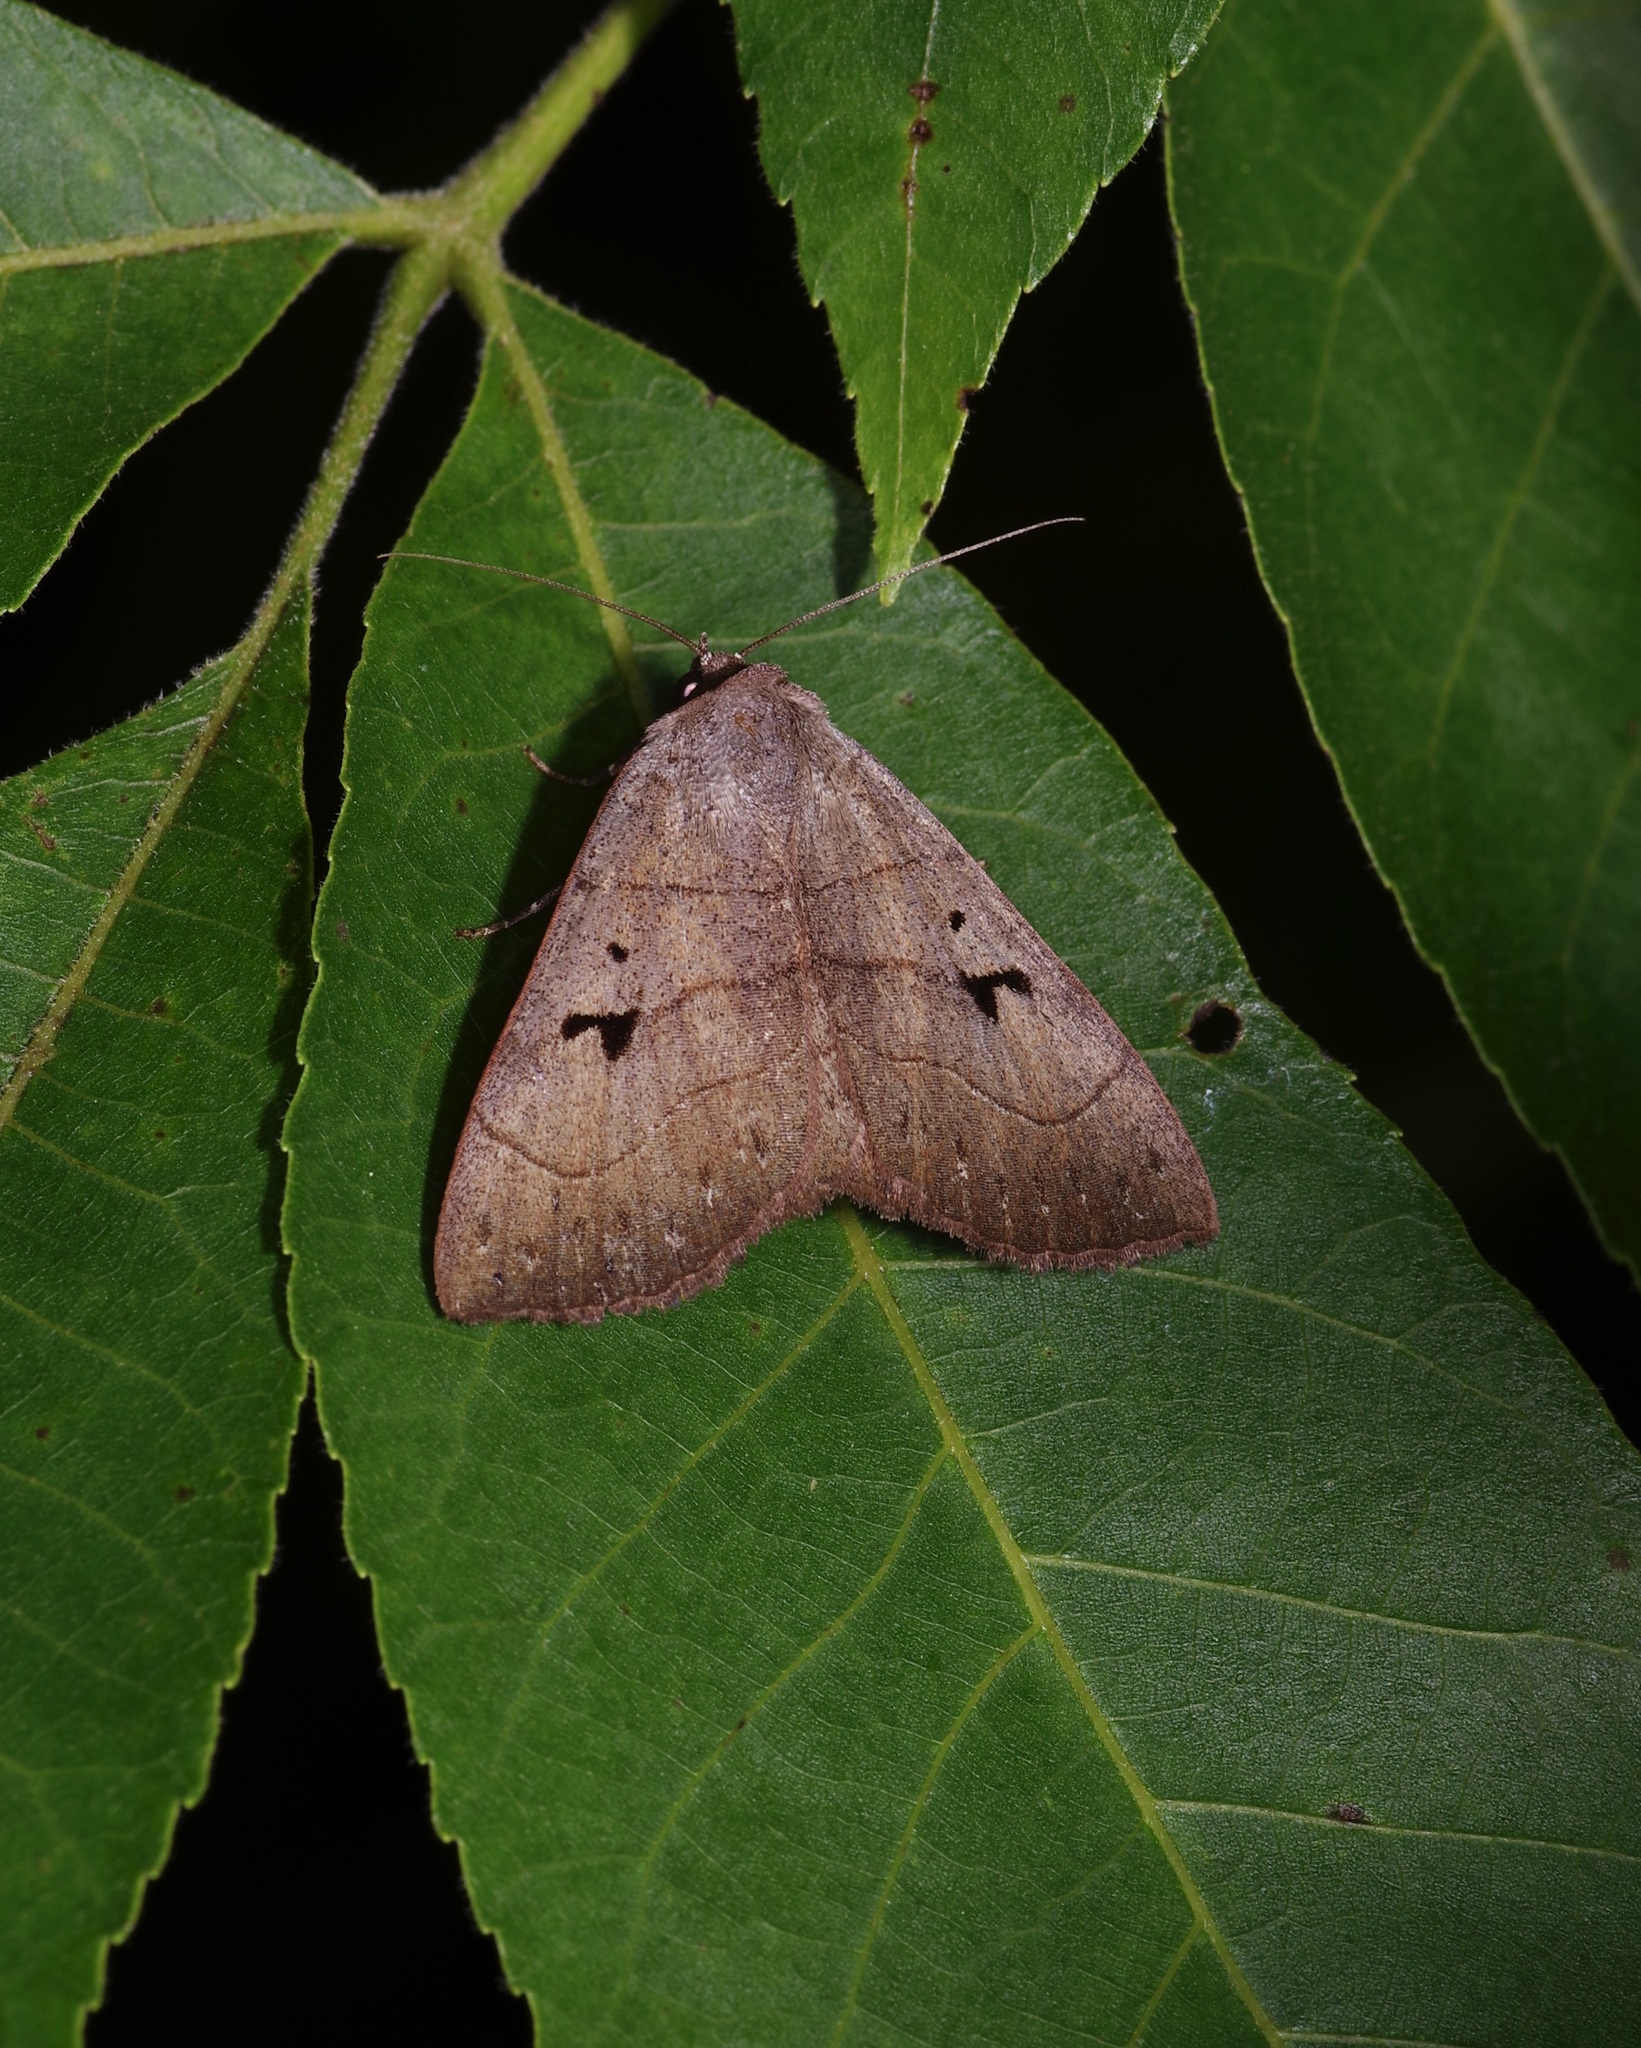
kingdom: Animalia
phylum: Arthropoda
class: Insecta
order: Lepidoptera
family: Erebidae
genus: Panopoda
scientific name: Panopoda carneicosta
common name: Brown panopoda moth
